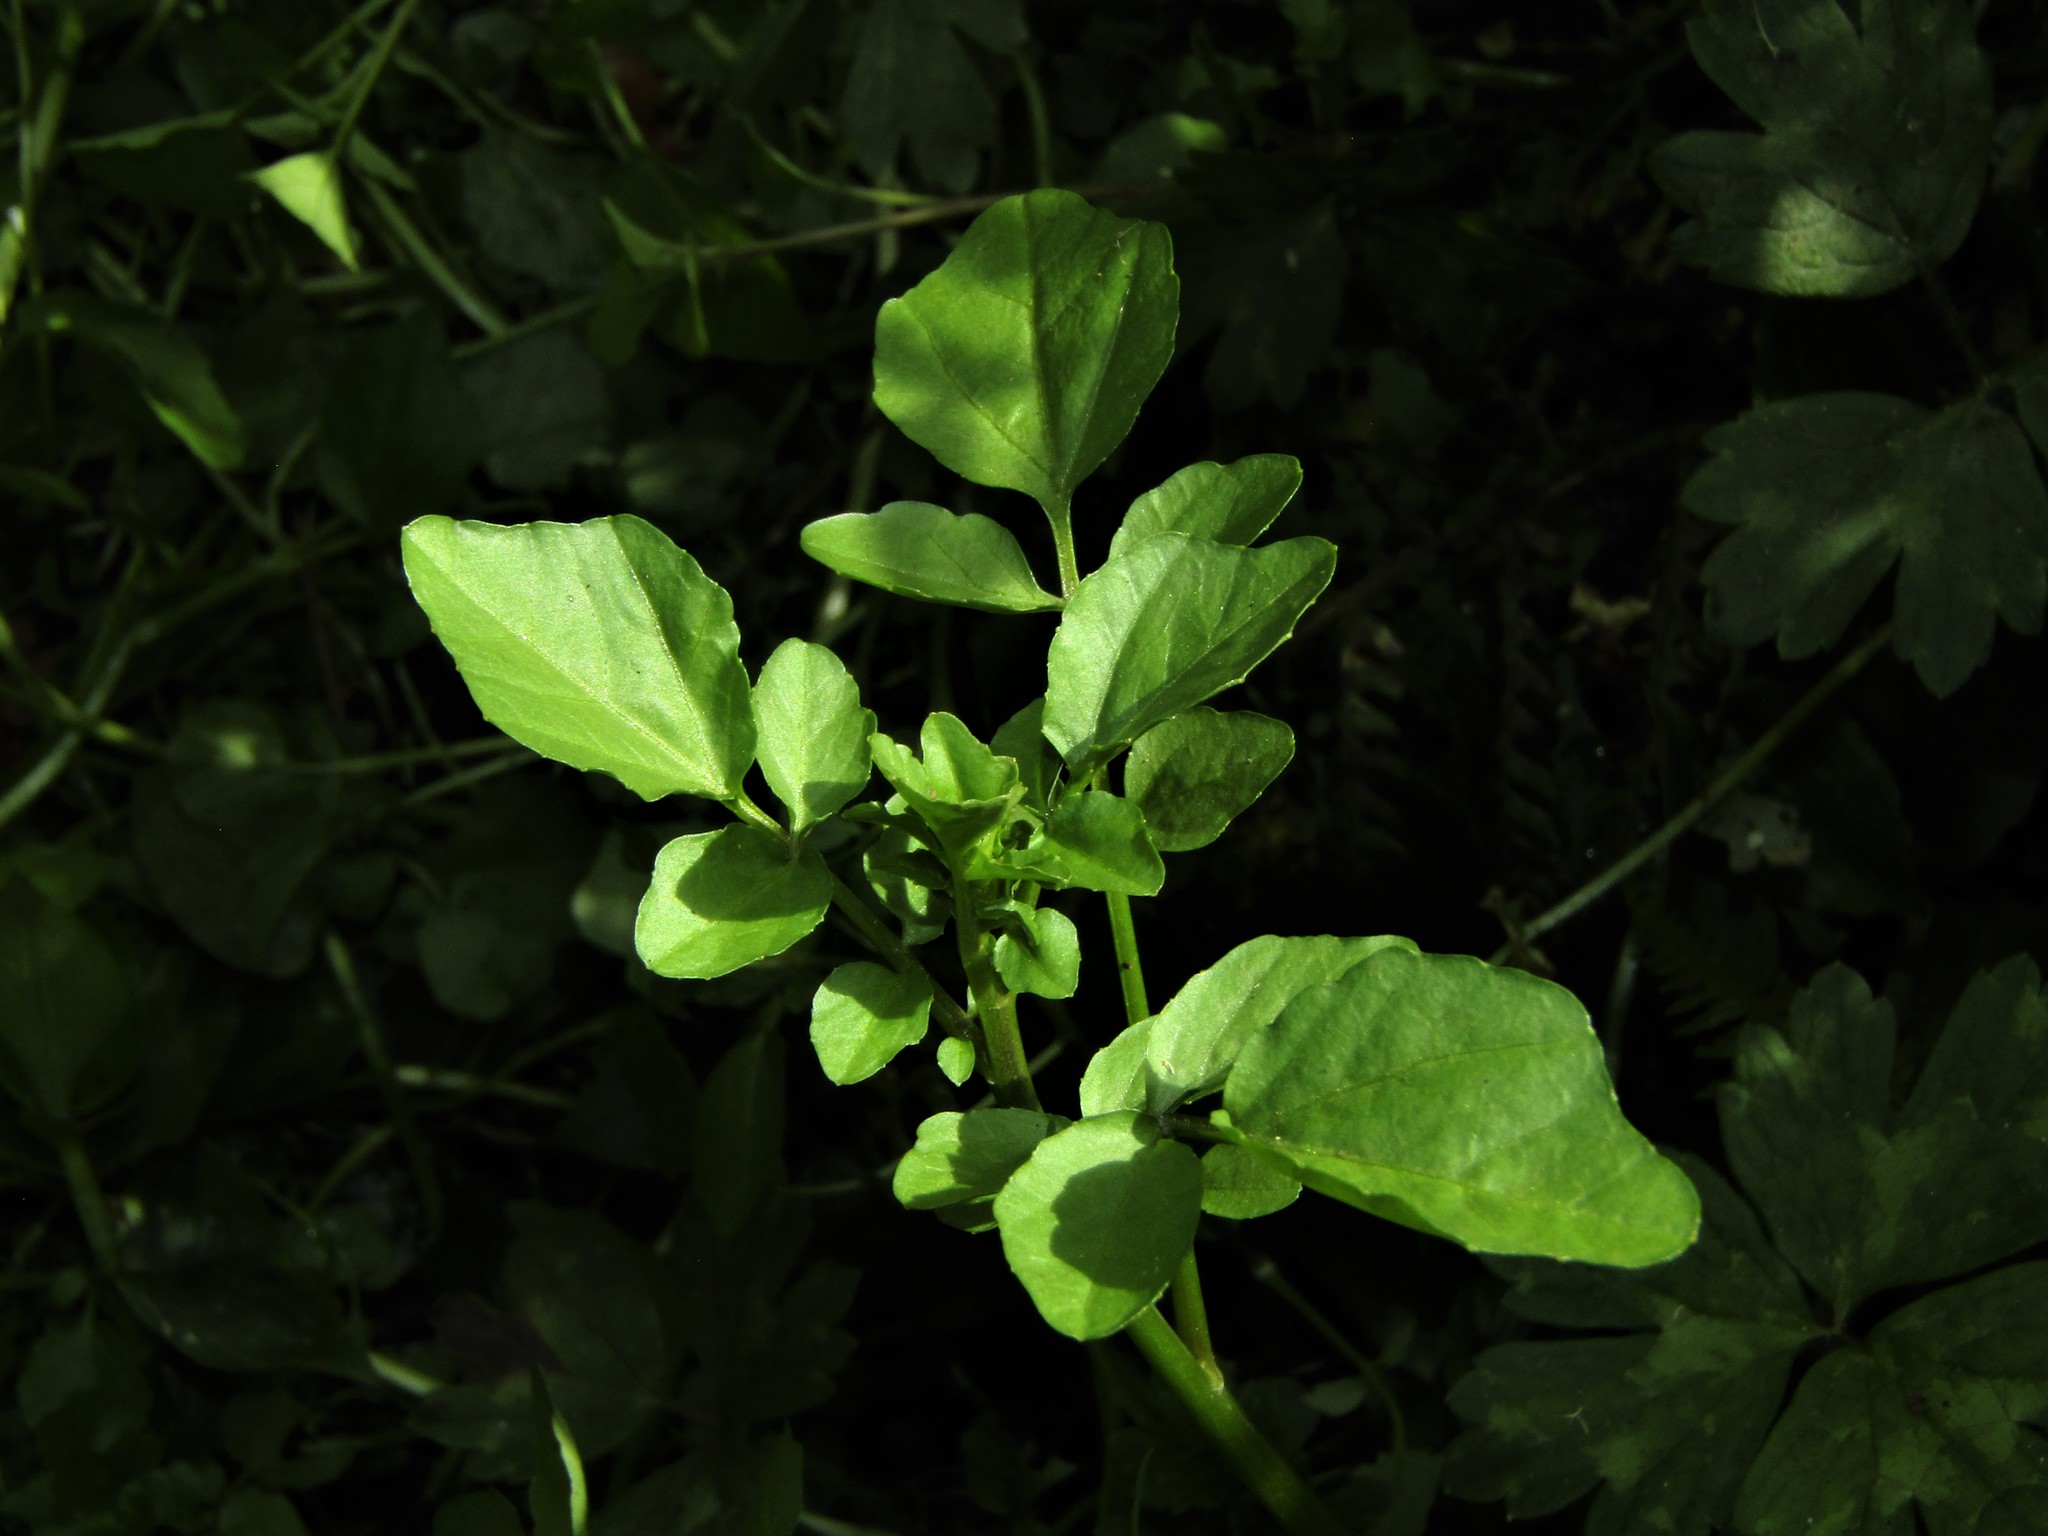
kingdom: Plantae
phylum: Tracheophyta
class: Magnoliopsida
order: Brassicales
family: Brassicaceae
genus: Nasturtium
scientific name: Nasturtium officinale
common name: Watercress
